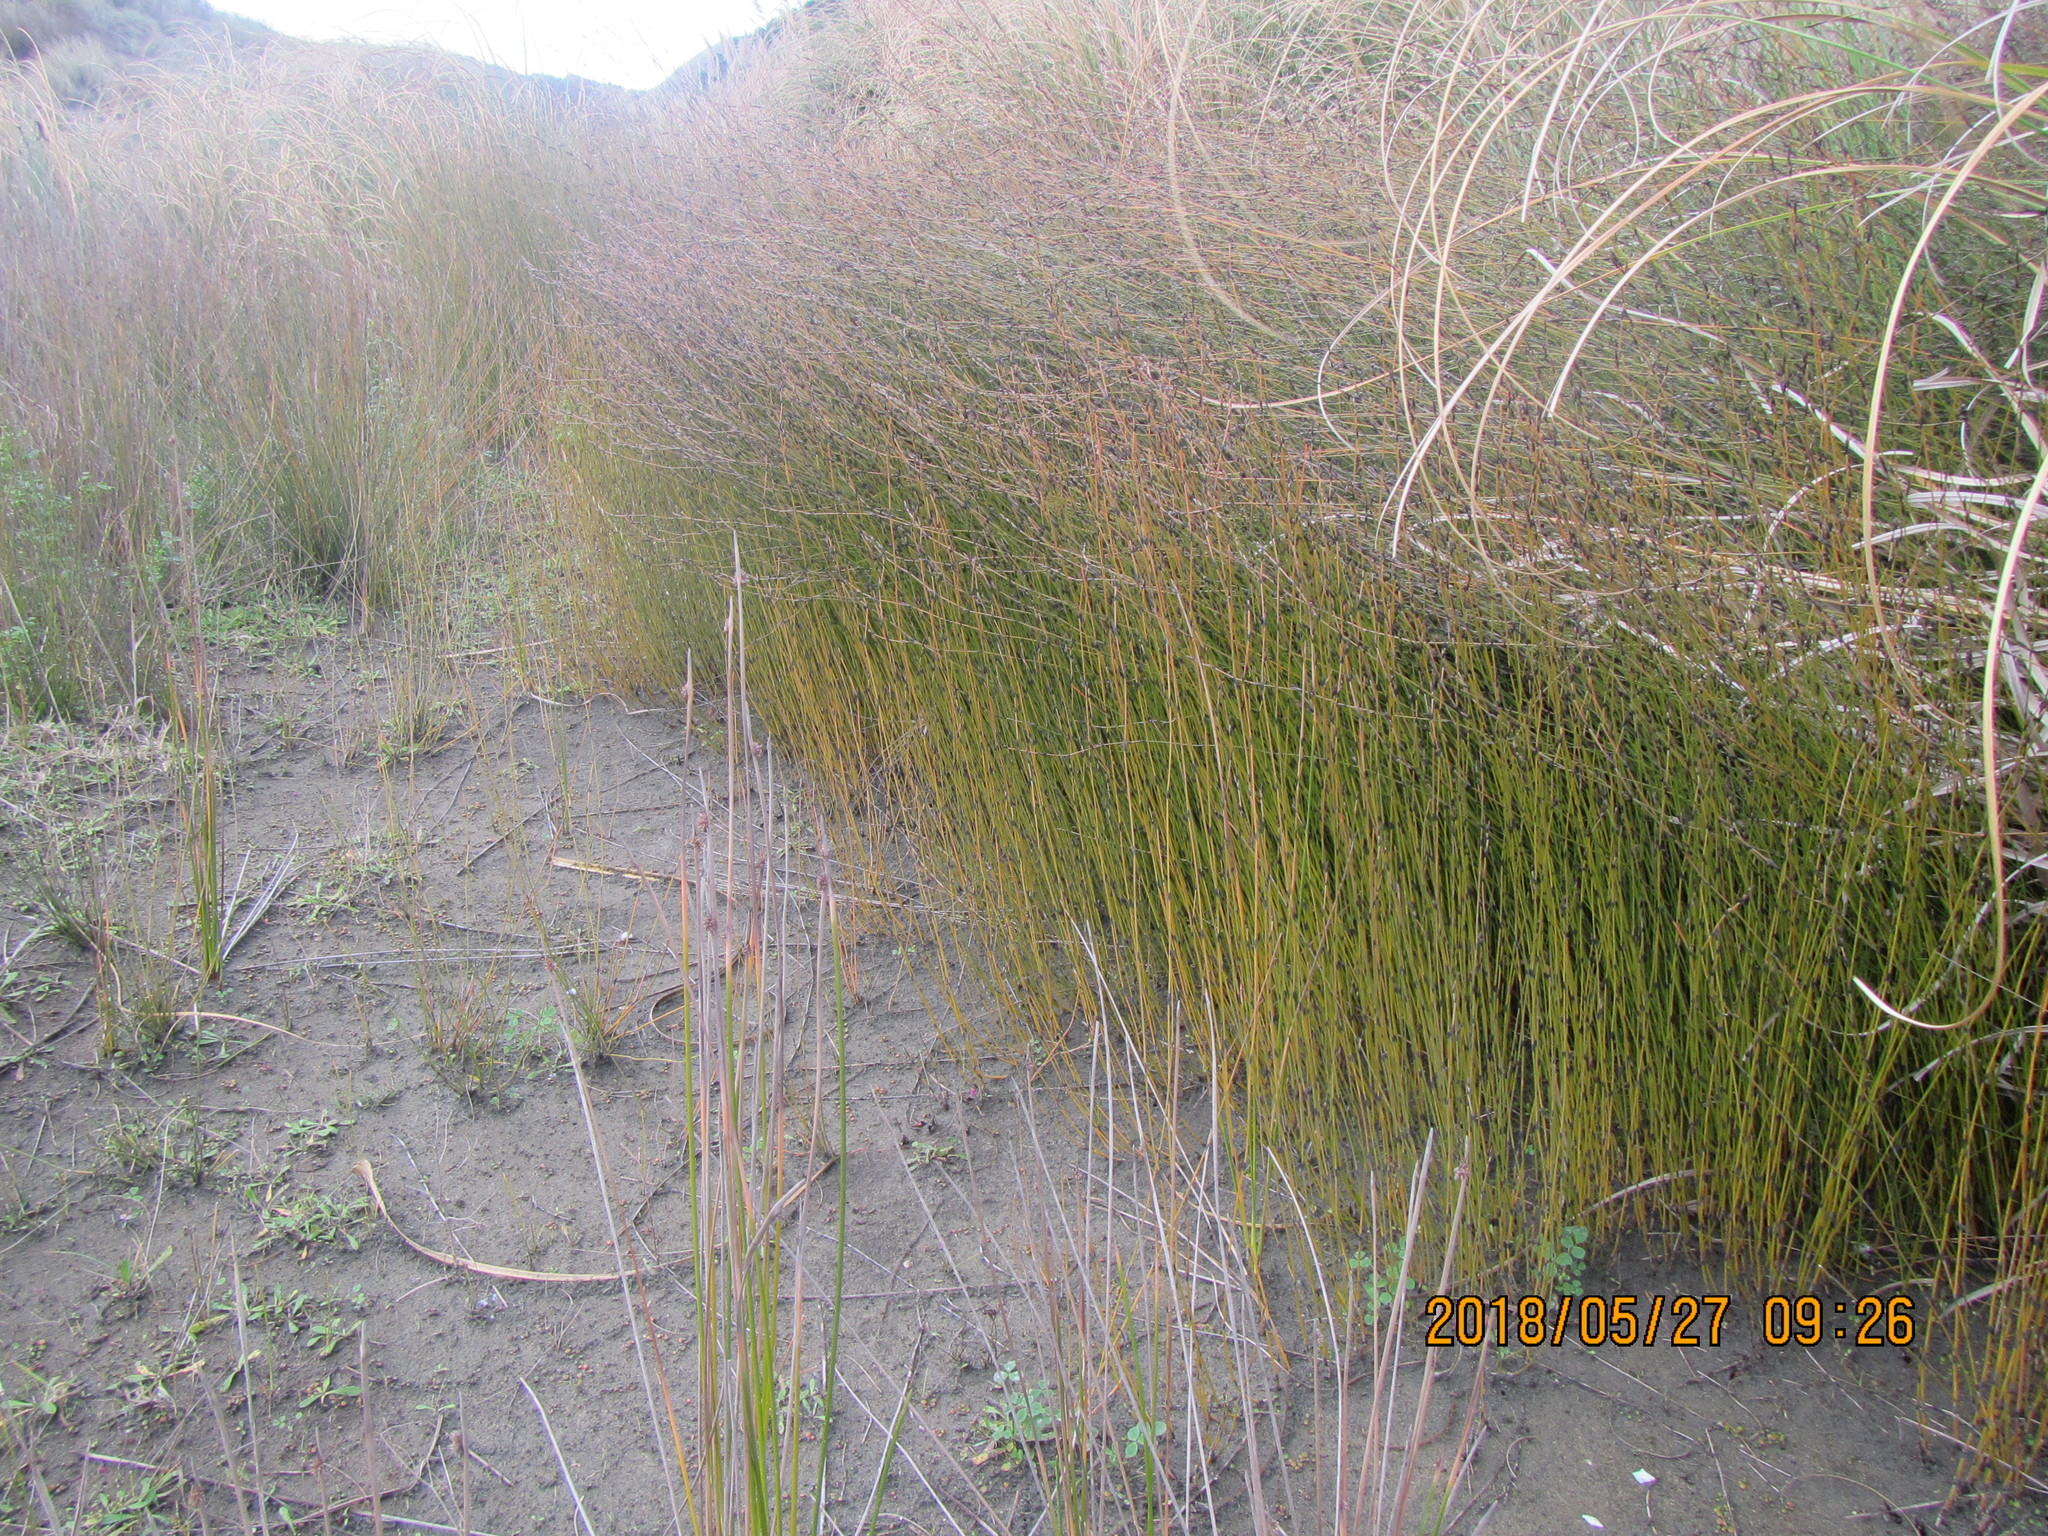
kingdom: Plantae
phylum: Tracheophyta
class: Liliopsida
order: Poales
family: Restionaceae
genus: Apodasmia
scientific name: Apodasmia similis
